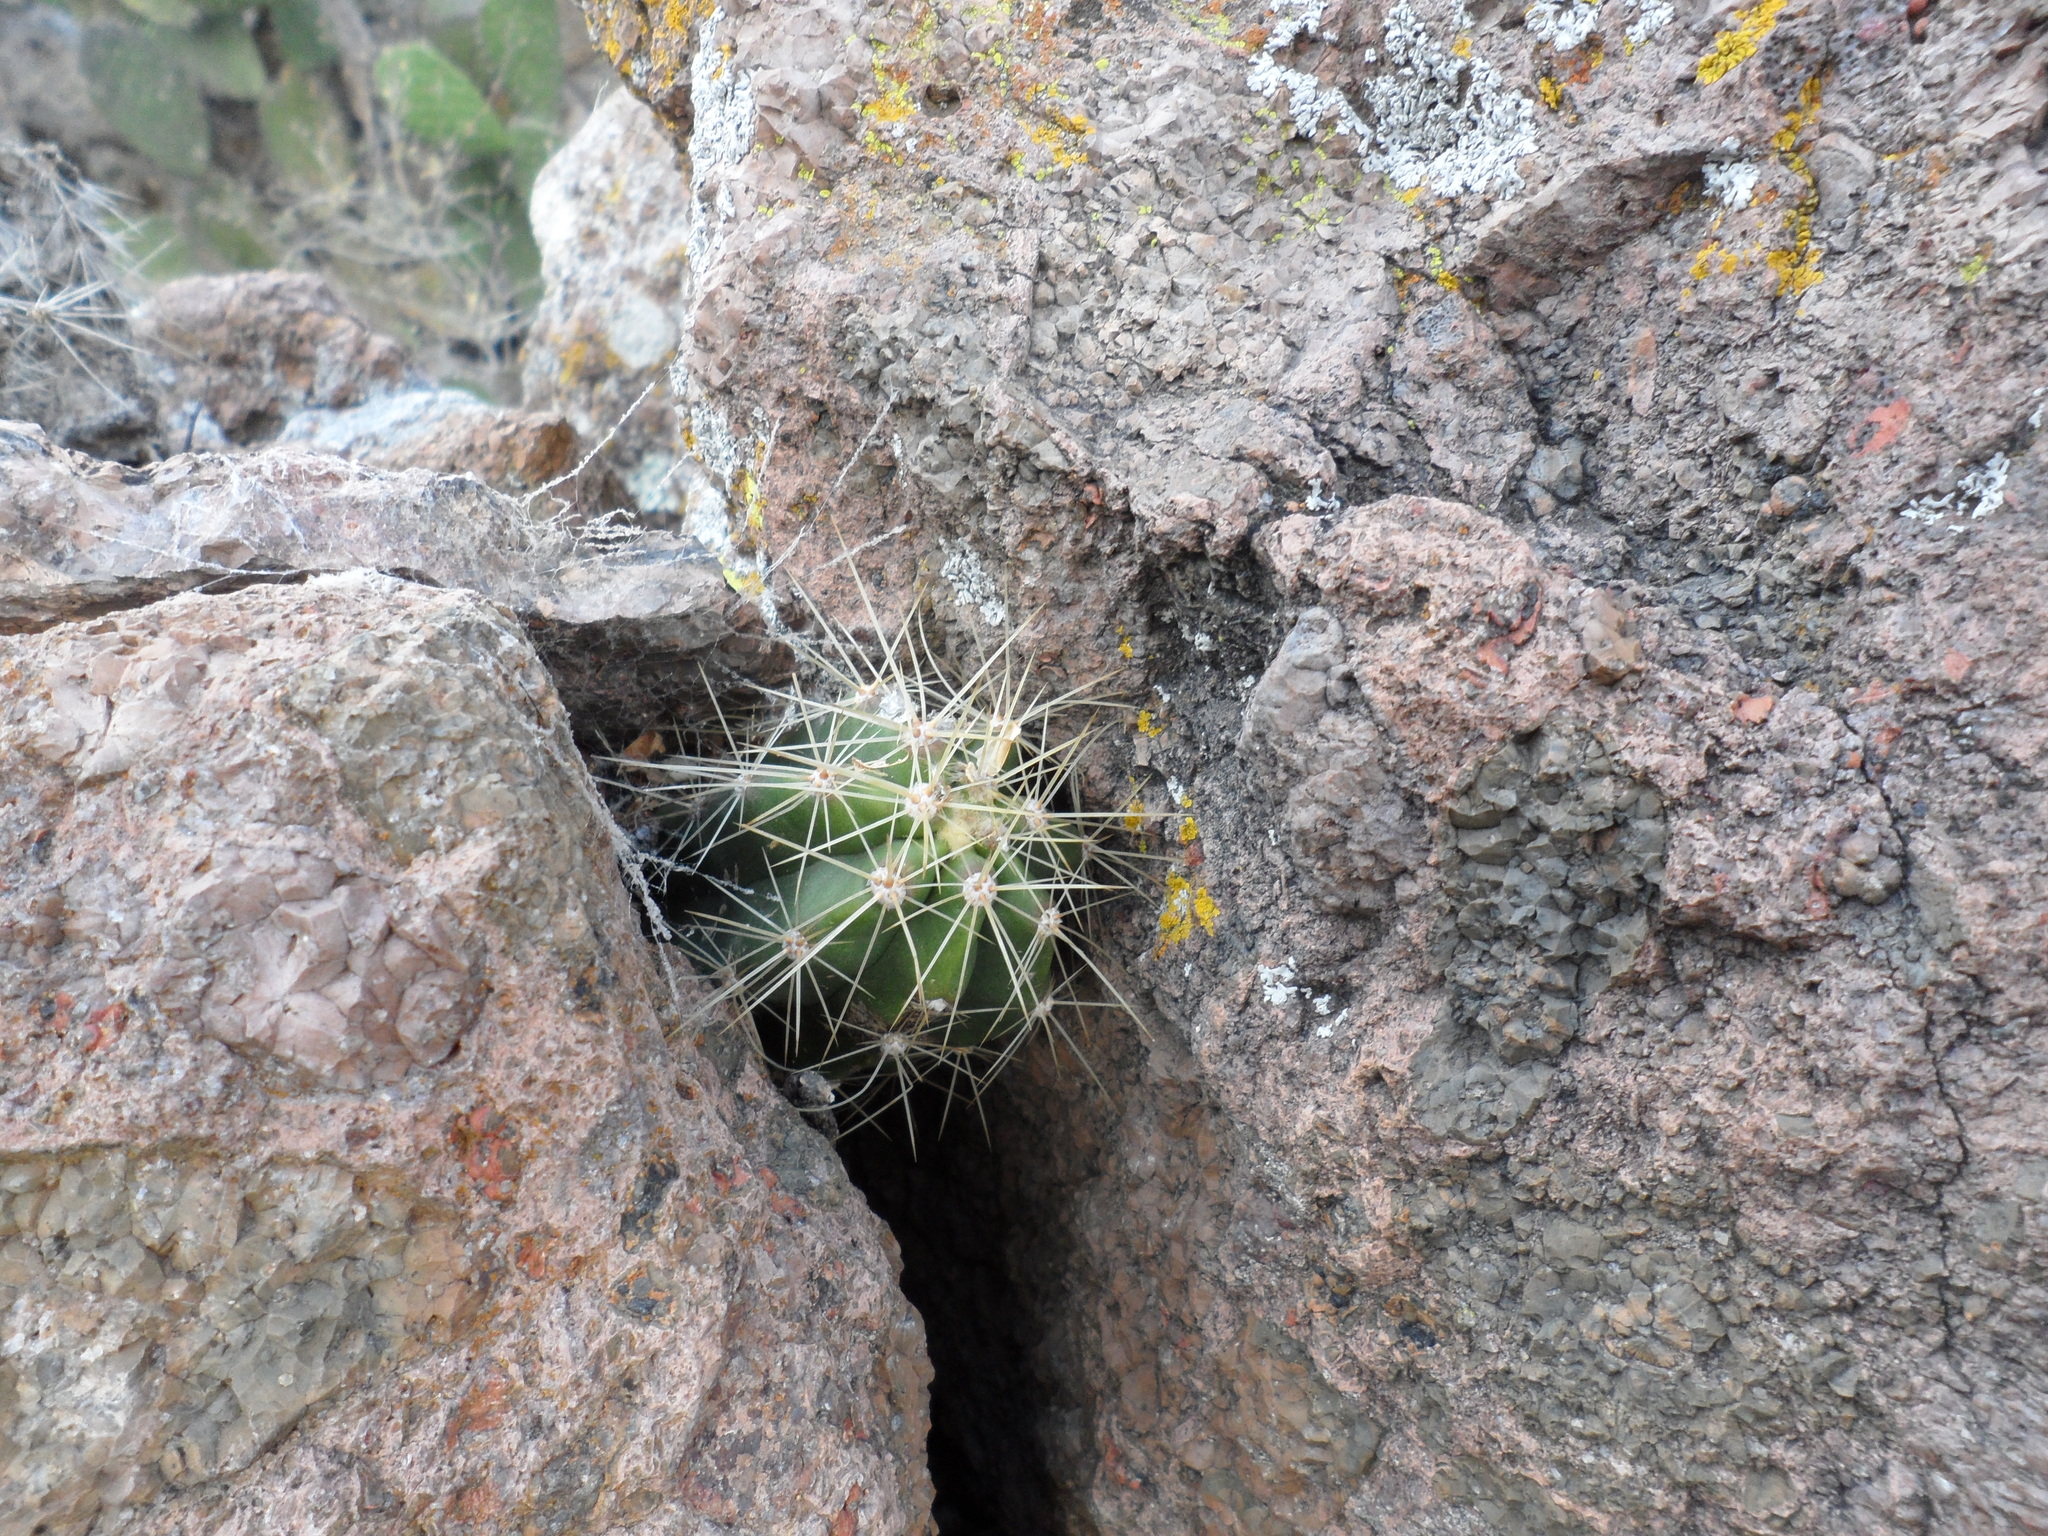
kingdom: Plantae
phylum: Tracheophyta
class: Magnoliopsida
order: Caryophyllales
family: Cactaceae
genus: Echinocereus
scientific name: Echinocereus cinerascens
